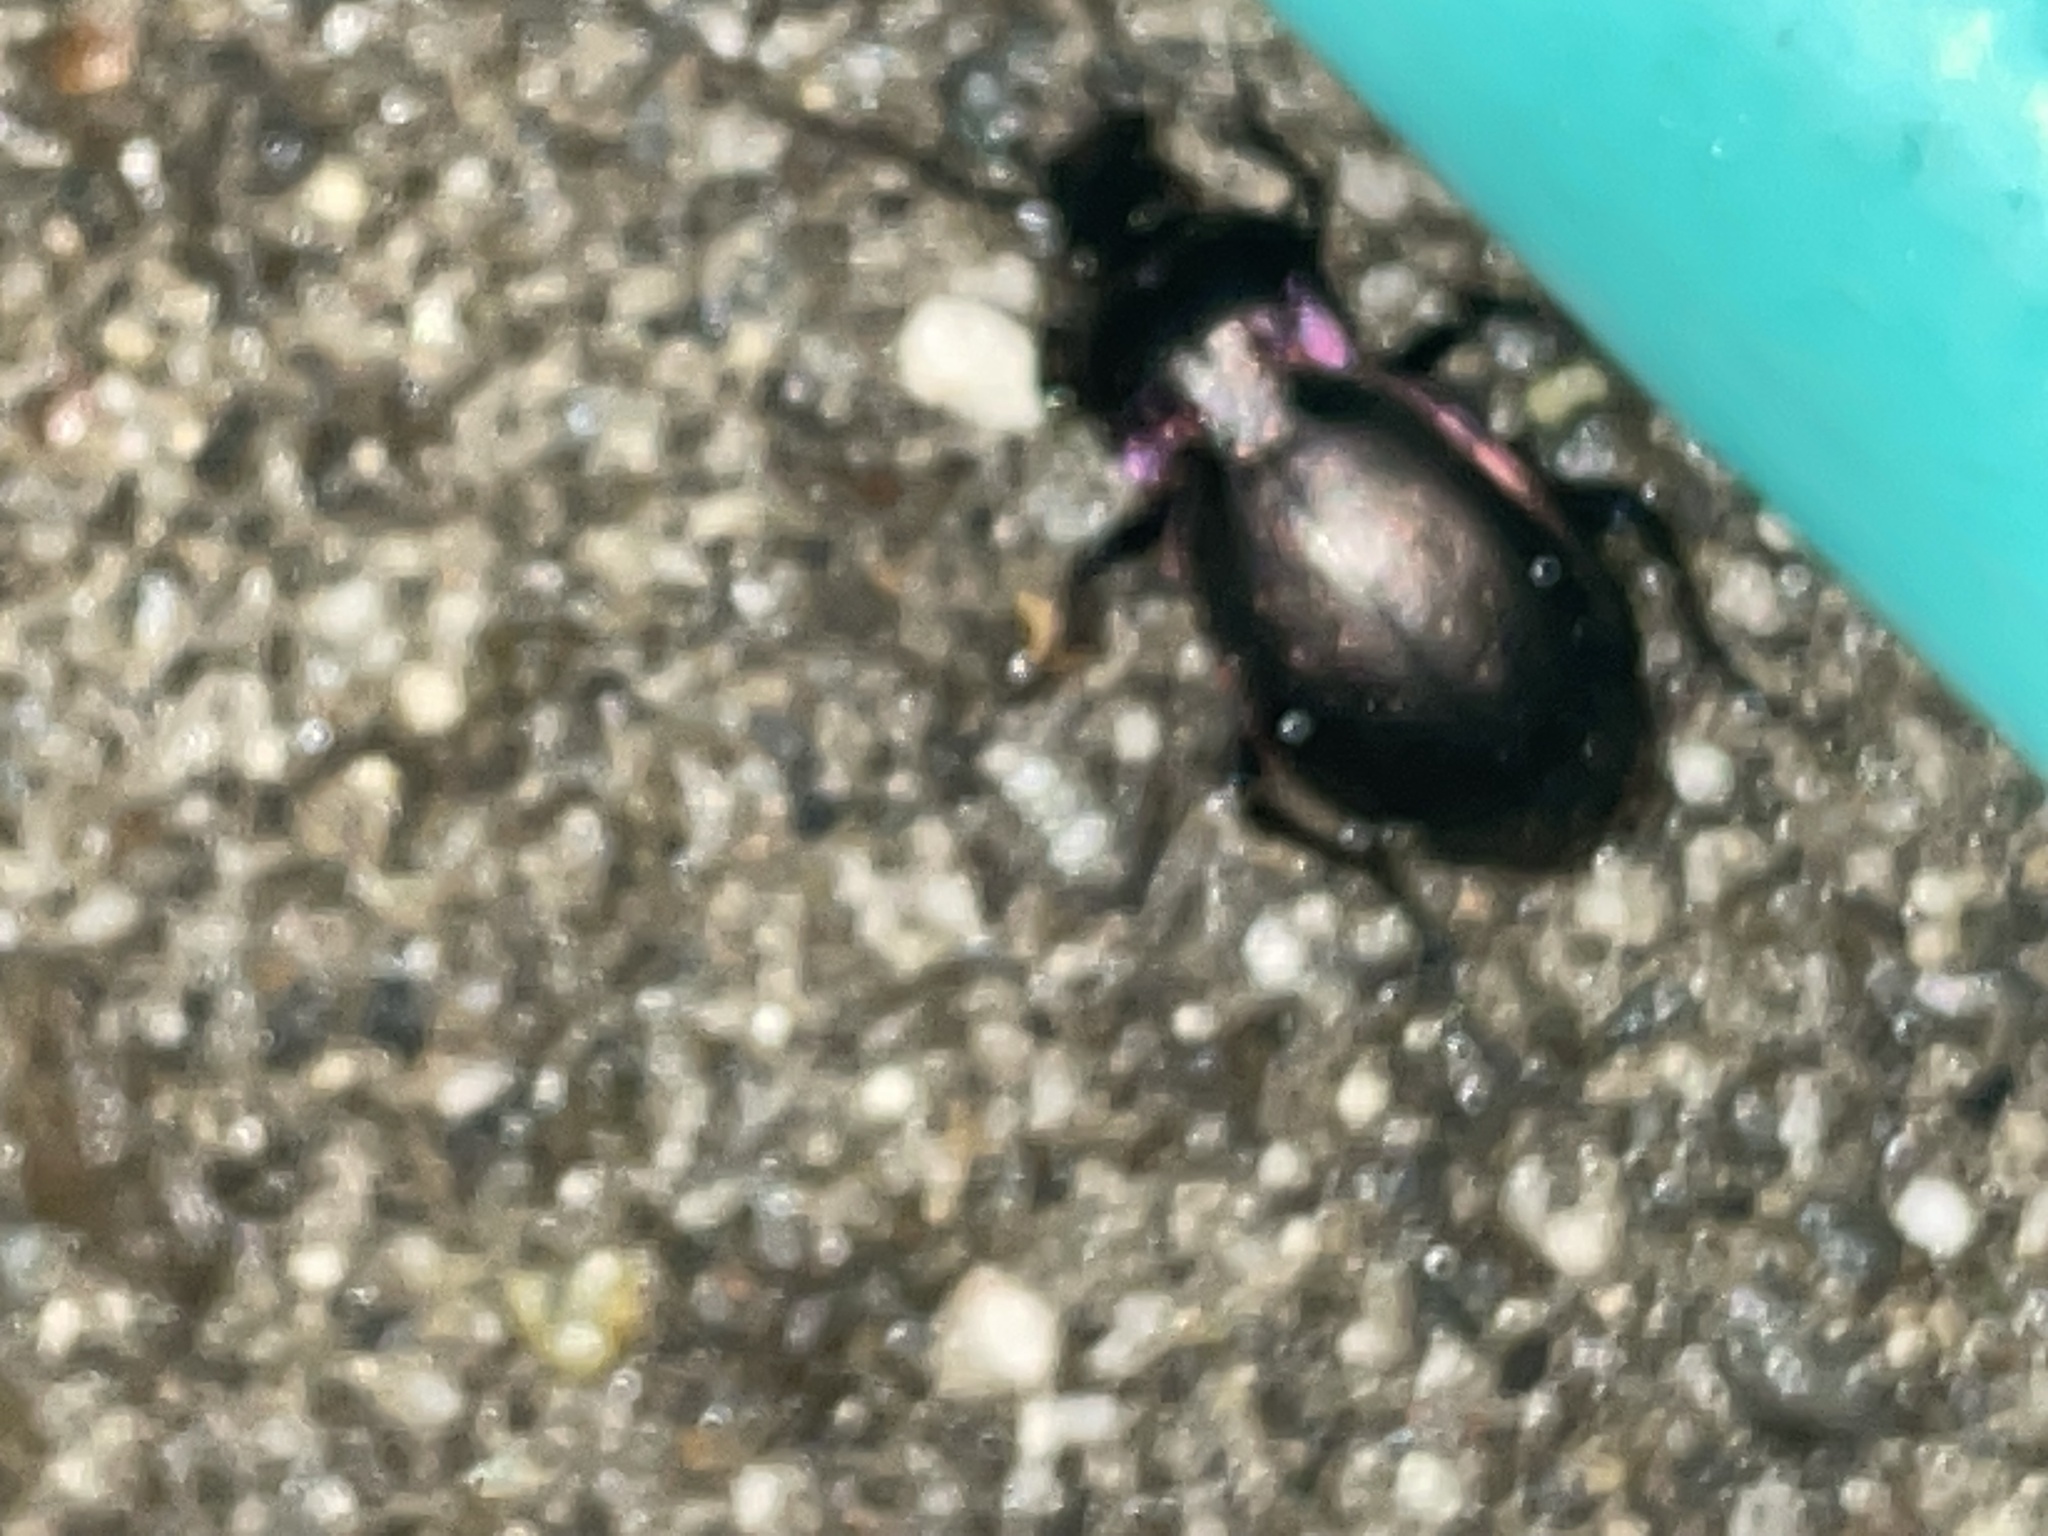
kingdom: Animalia
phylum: Arthropoda
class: Insecta
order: Coleoptera
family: Carabidae
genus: Carabus
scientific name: Carabus nemoralis
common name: European ground beetle
